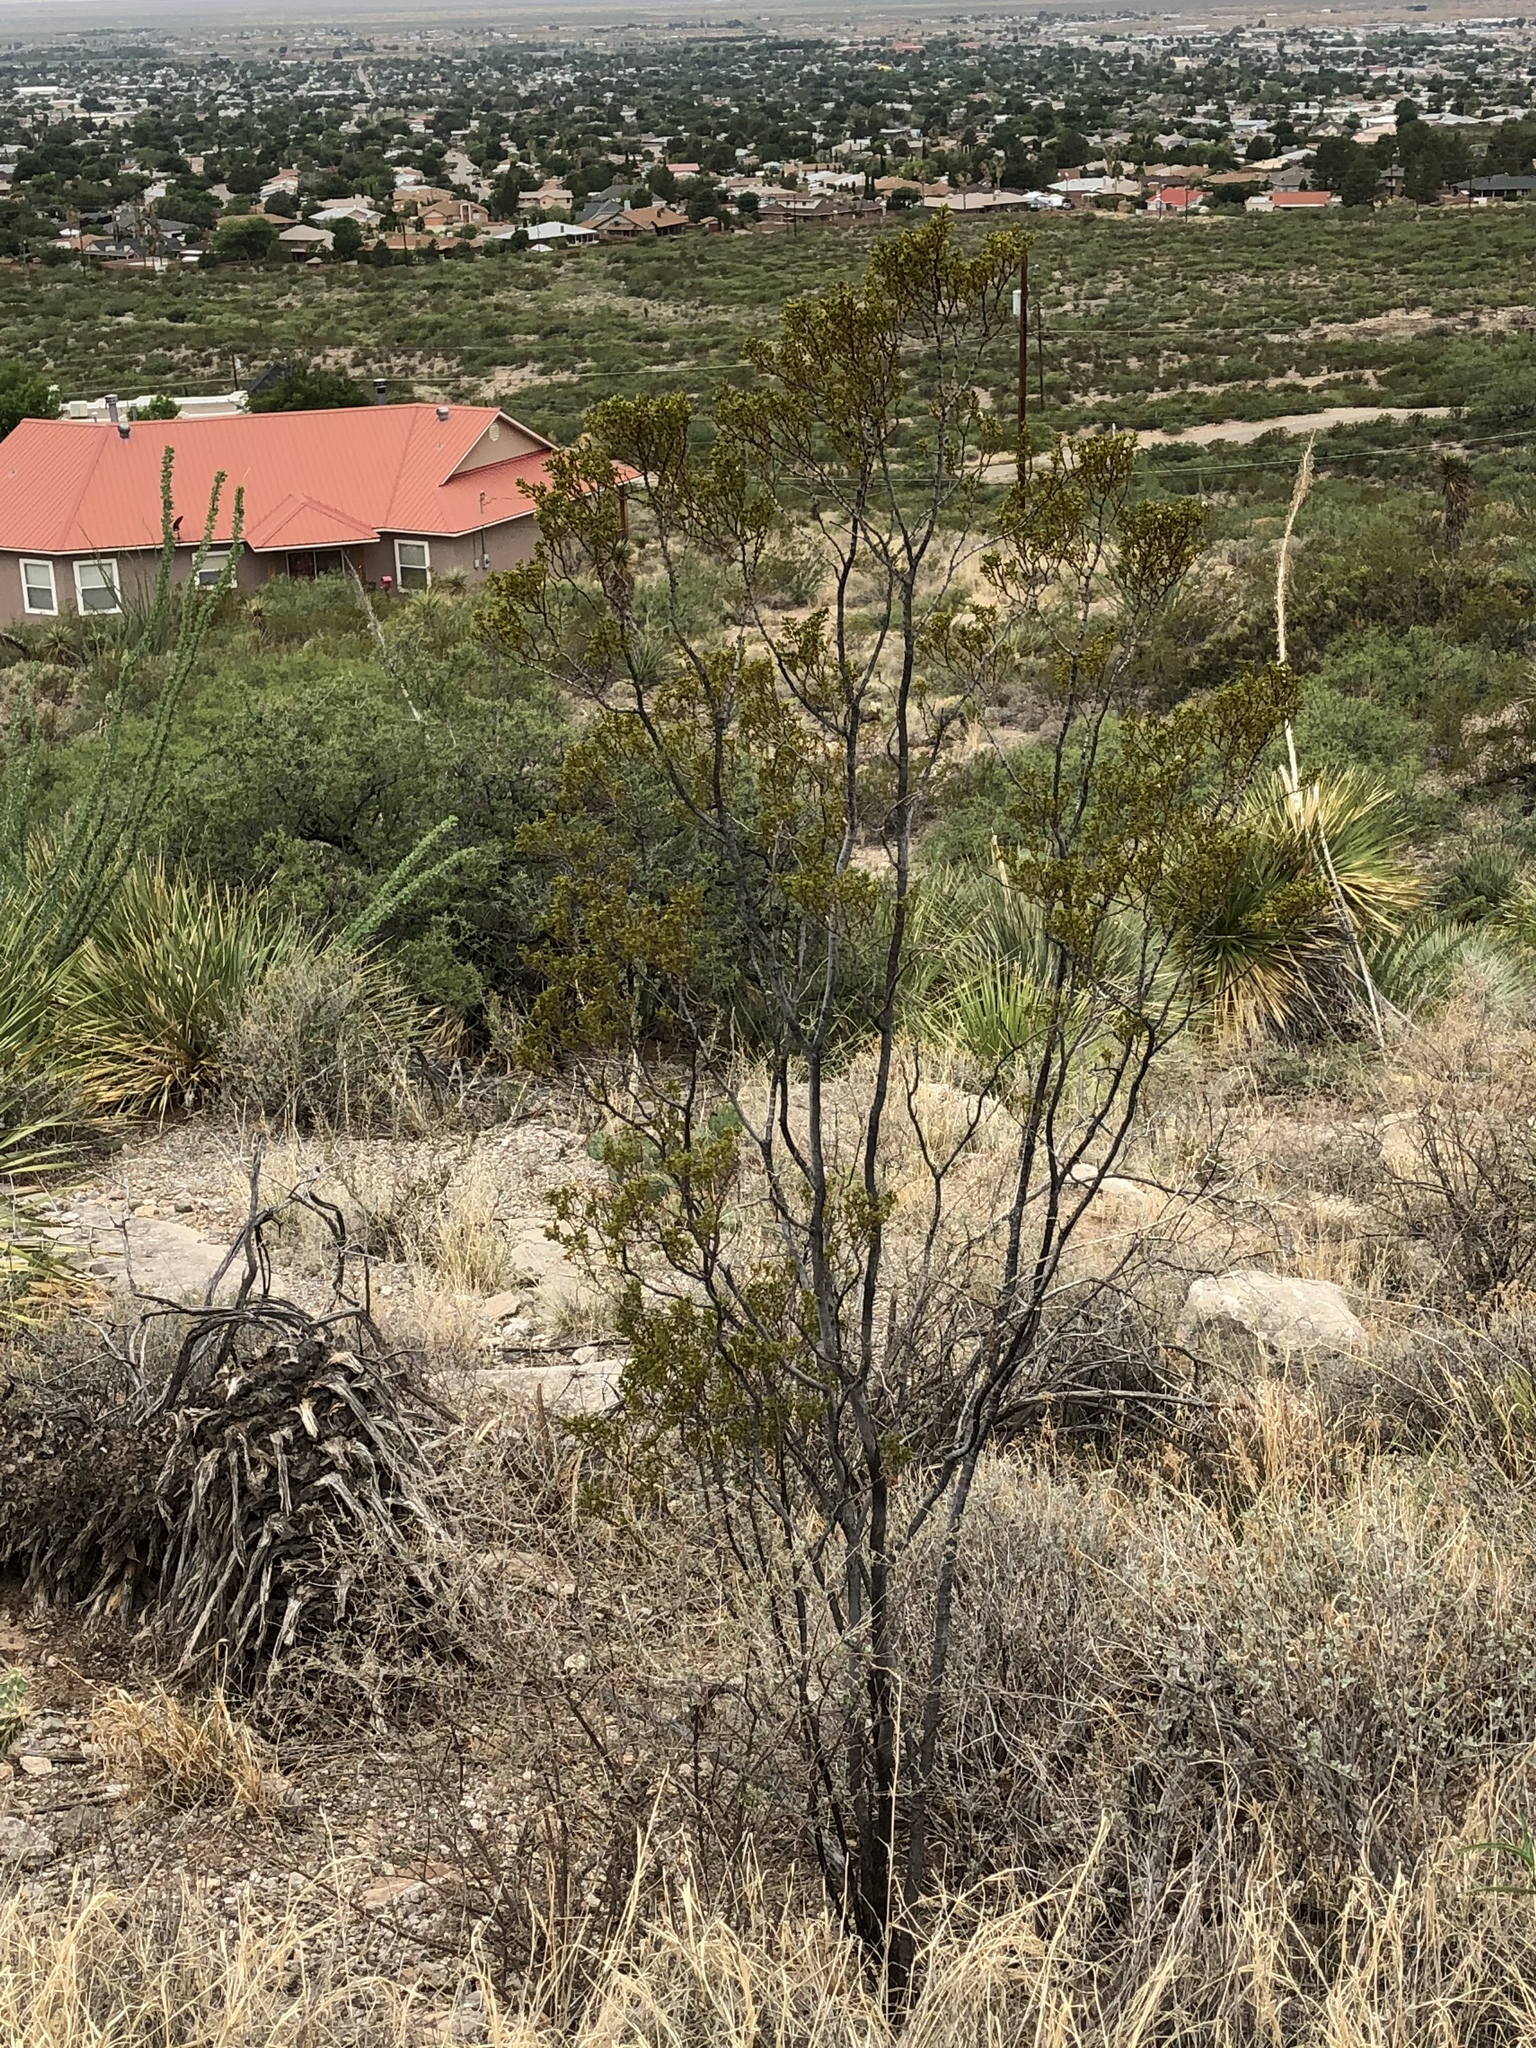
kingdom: Plantae
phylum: Tracheophyta
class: Magnoliopsida
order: Zygophyllales
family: Zygophyllaceae
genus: Larrea
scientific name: Larrea tridentata
